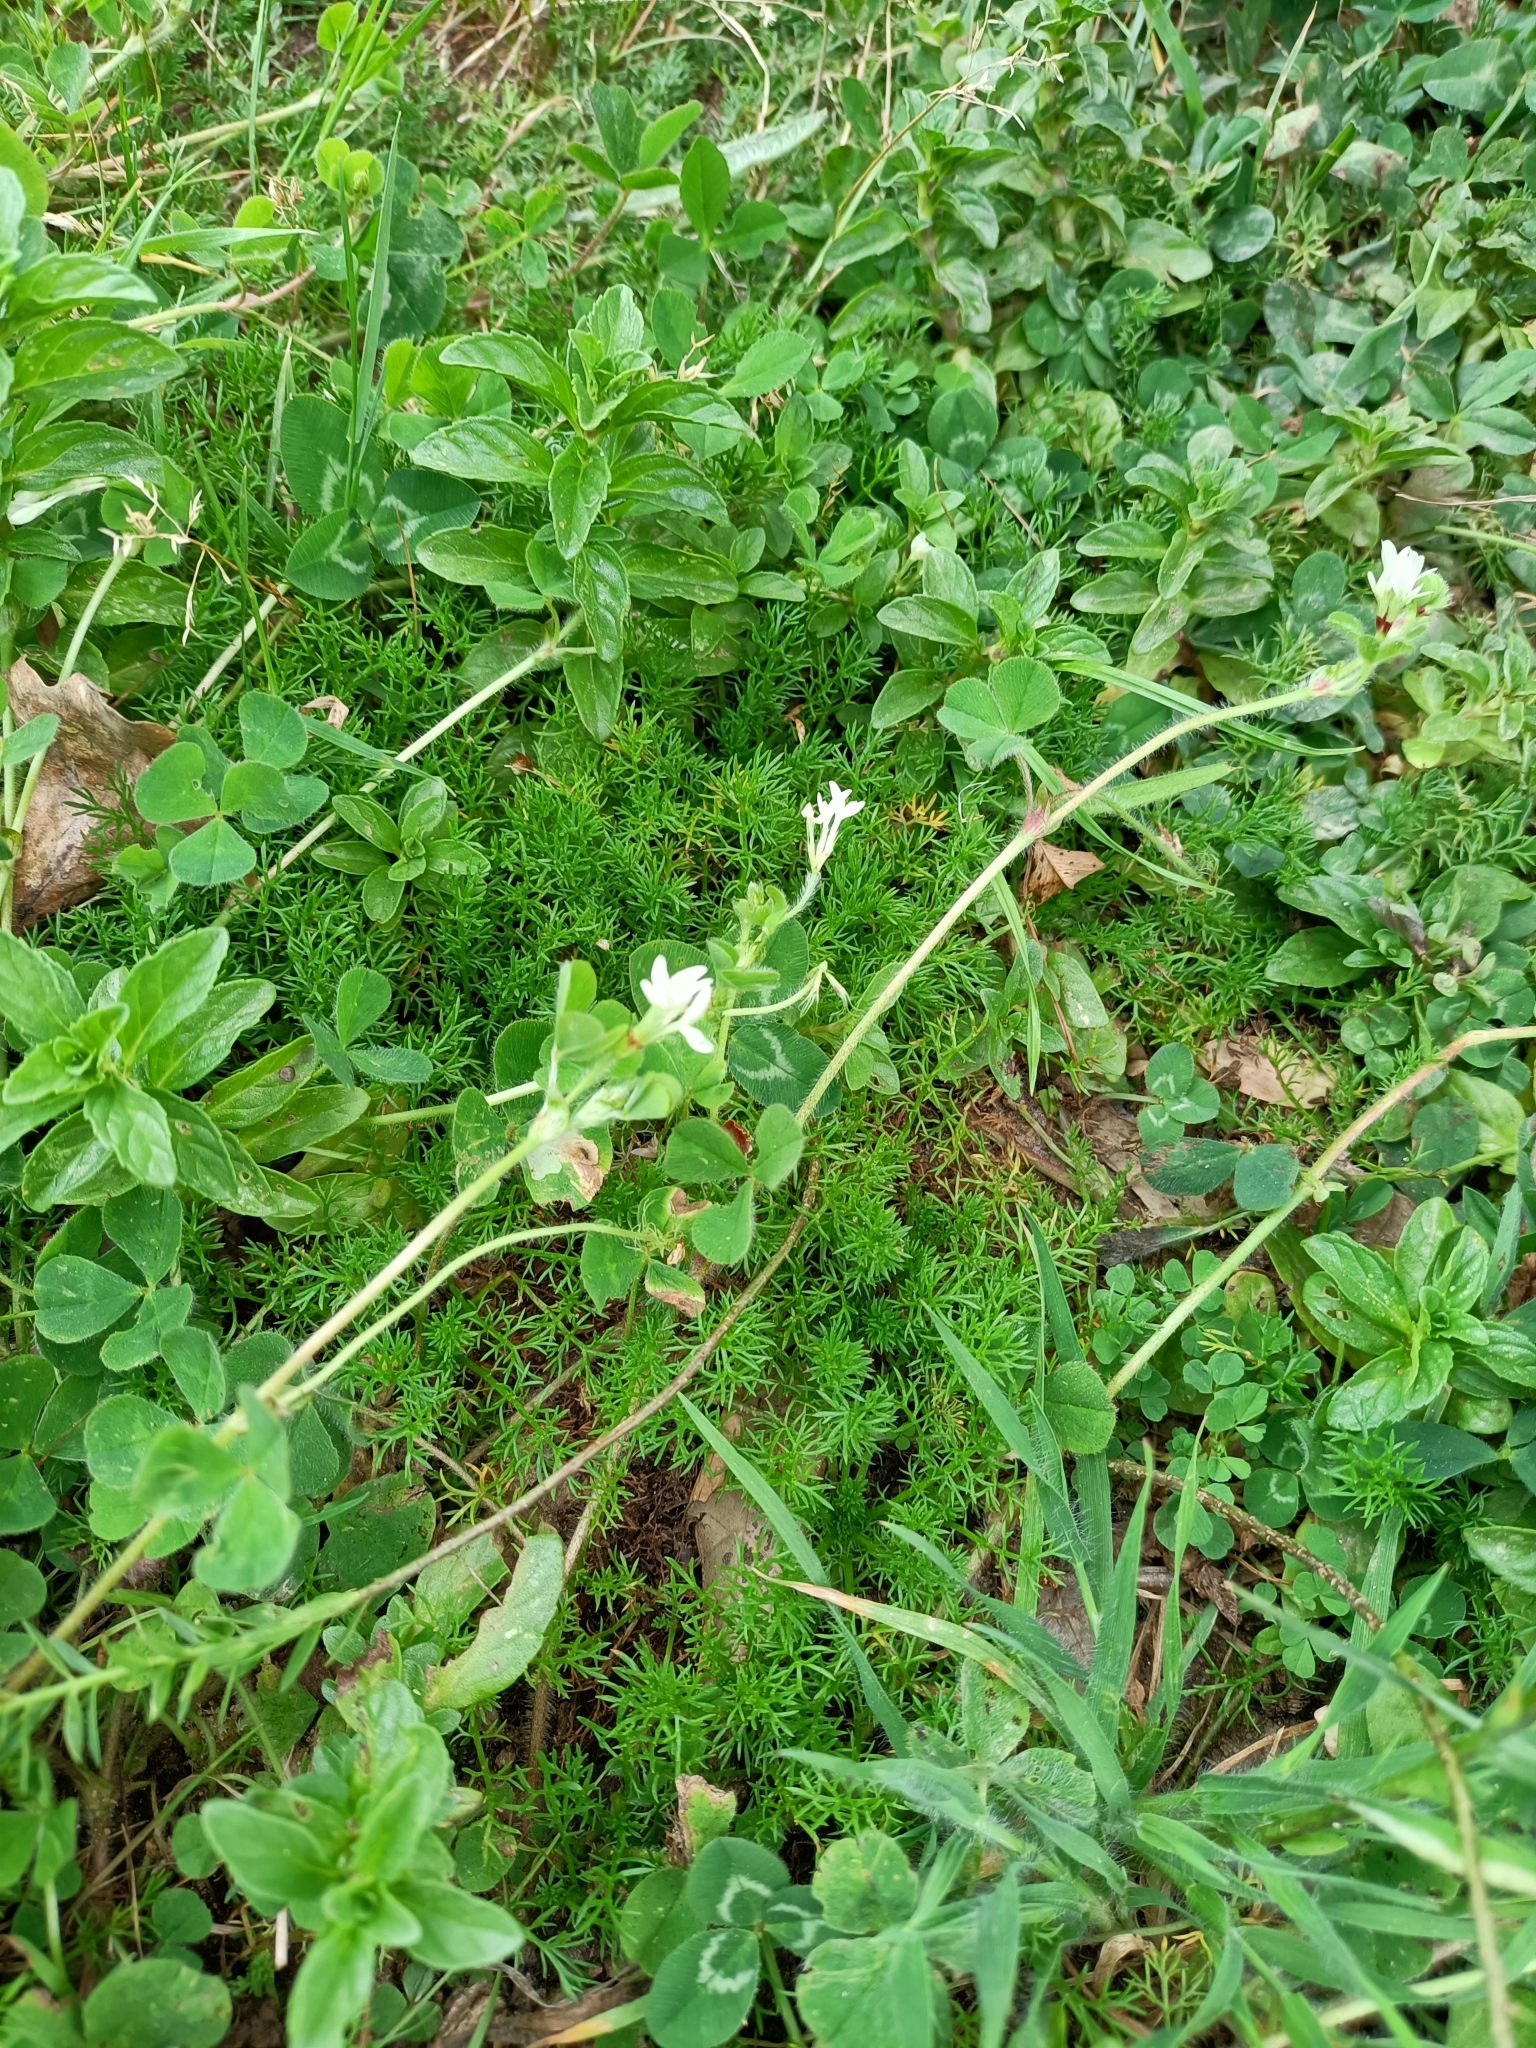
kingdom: Plantae
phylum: Tracheophyta
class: Magnoliopsida
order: Fabales
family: Fabaceae
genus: Trifolium
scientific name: Trifolium subterraneum
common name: Subterranean clover
